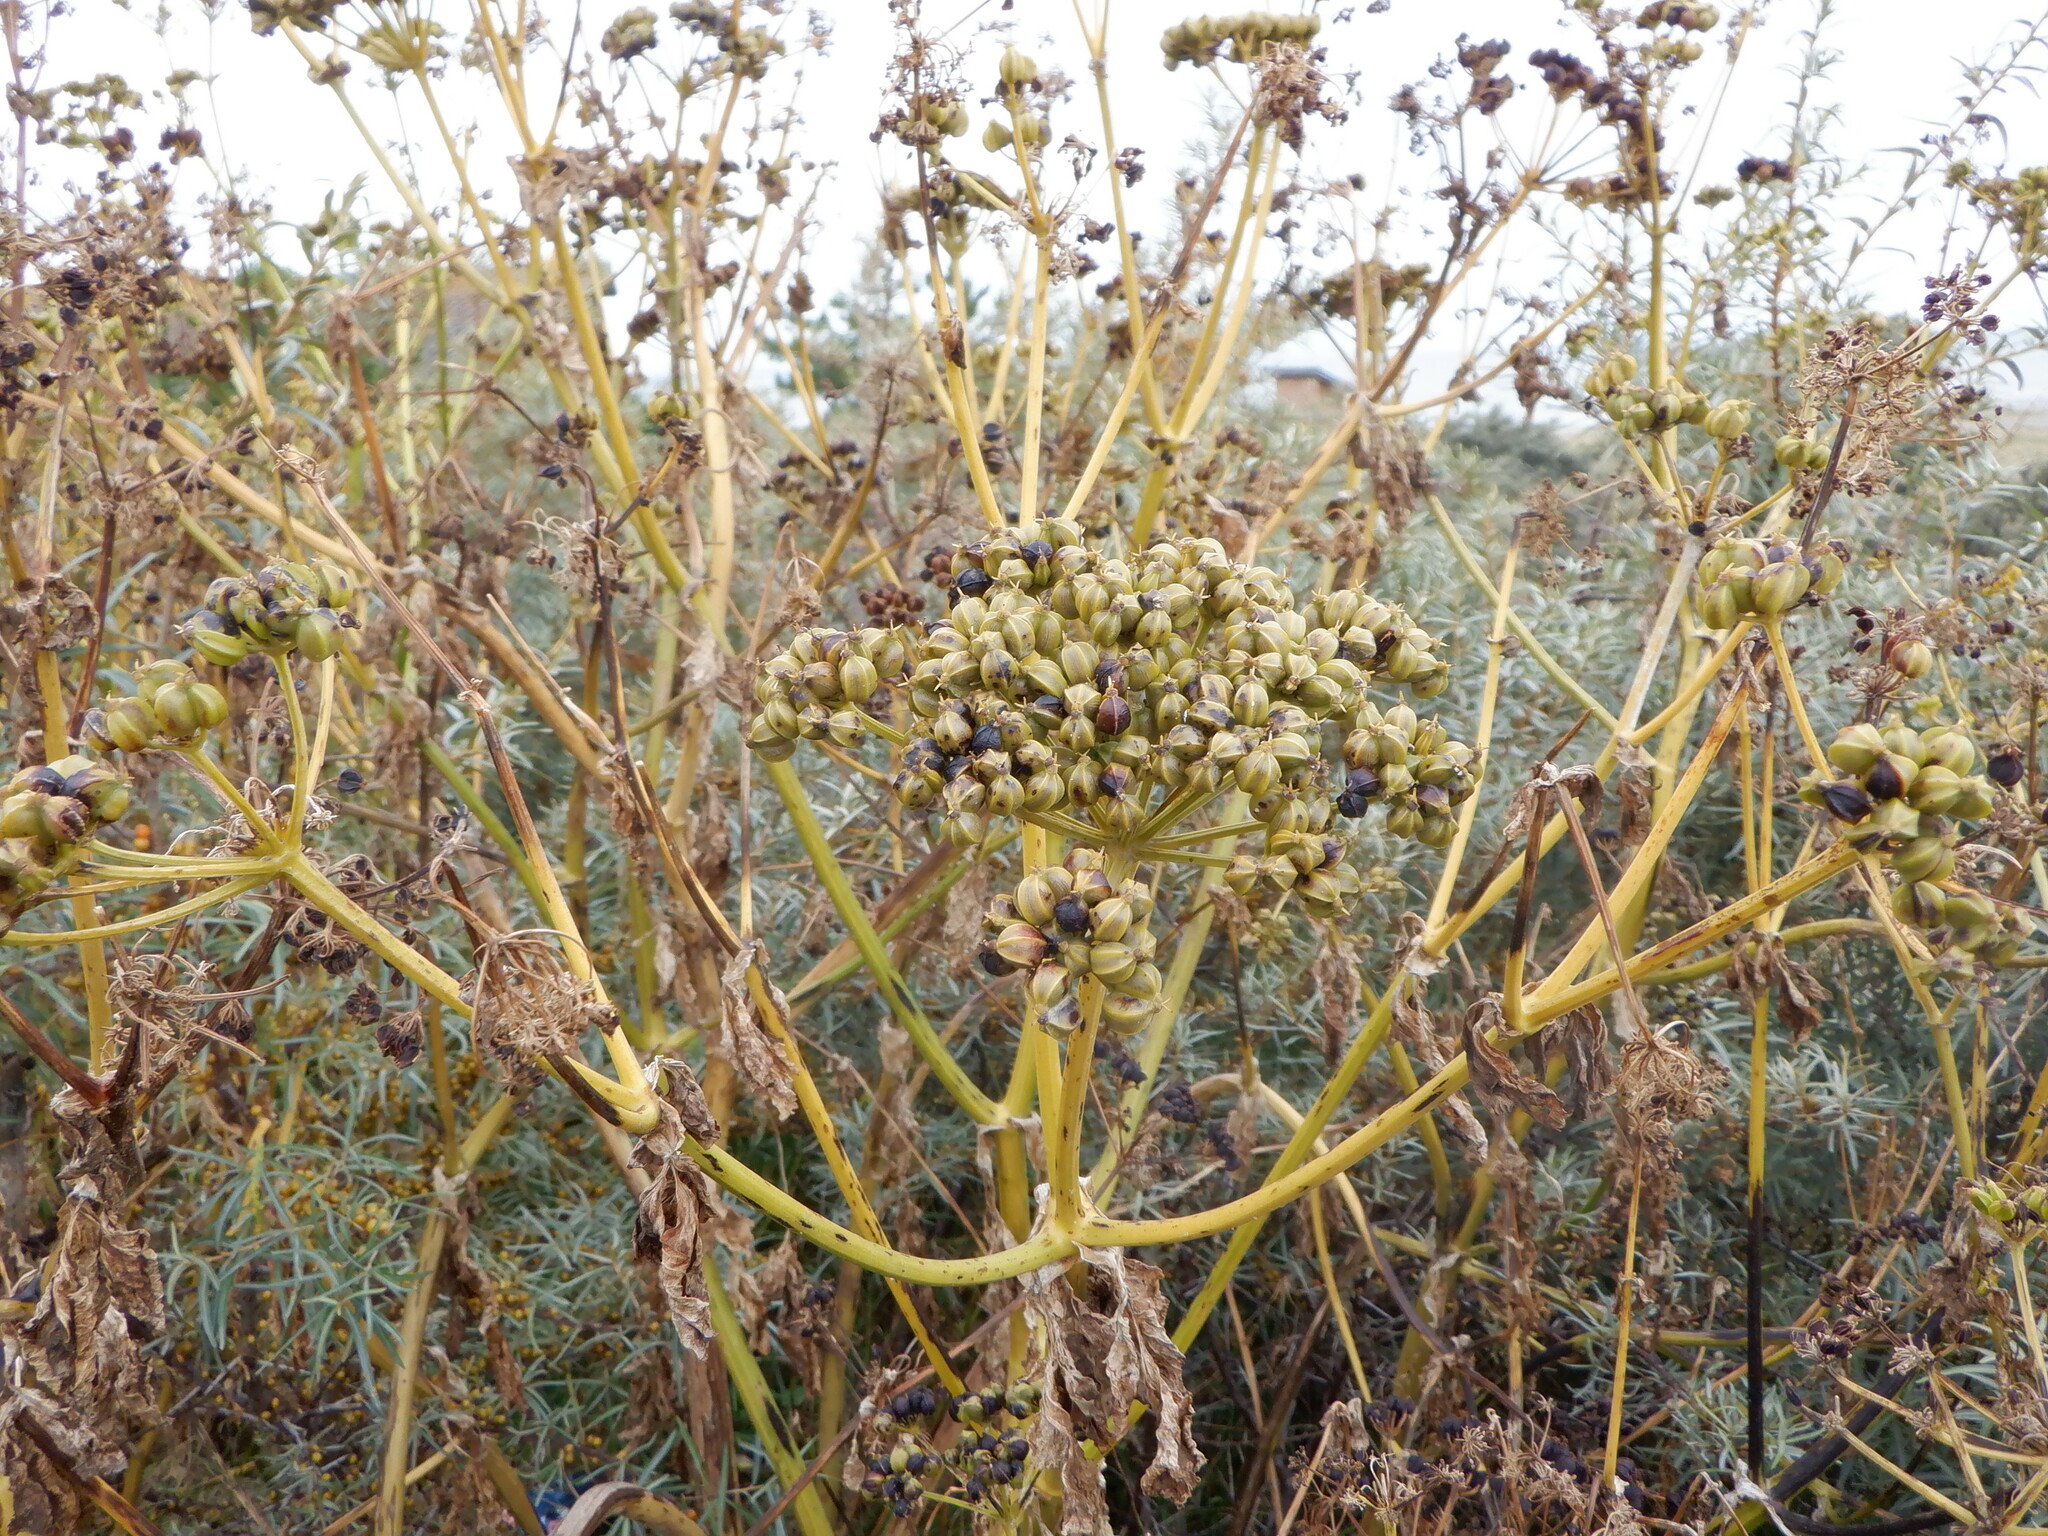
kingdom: Plantae
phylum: Tracheophyta
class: Magnoliopsida
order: Apiales
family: Apiaceae
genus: Smyrnium
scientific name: Smyrnium olusatrum
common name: Alexanders
